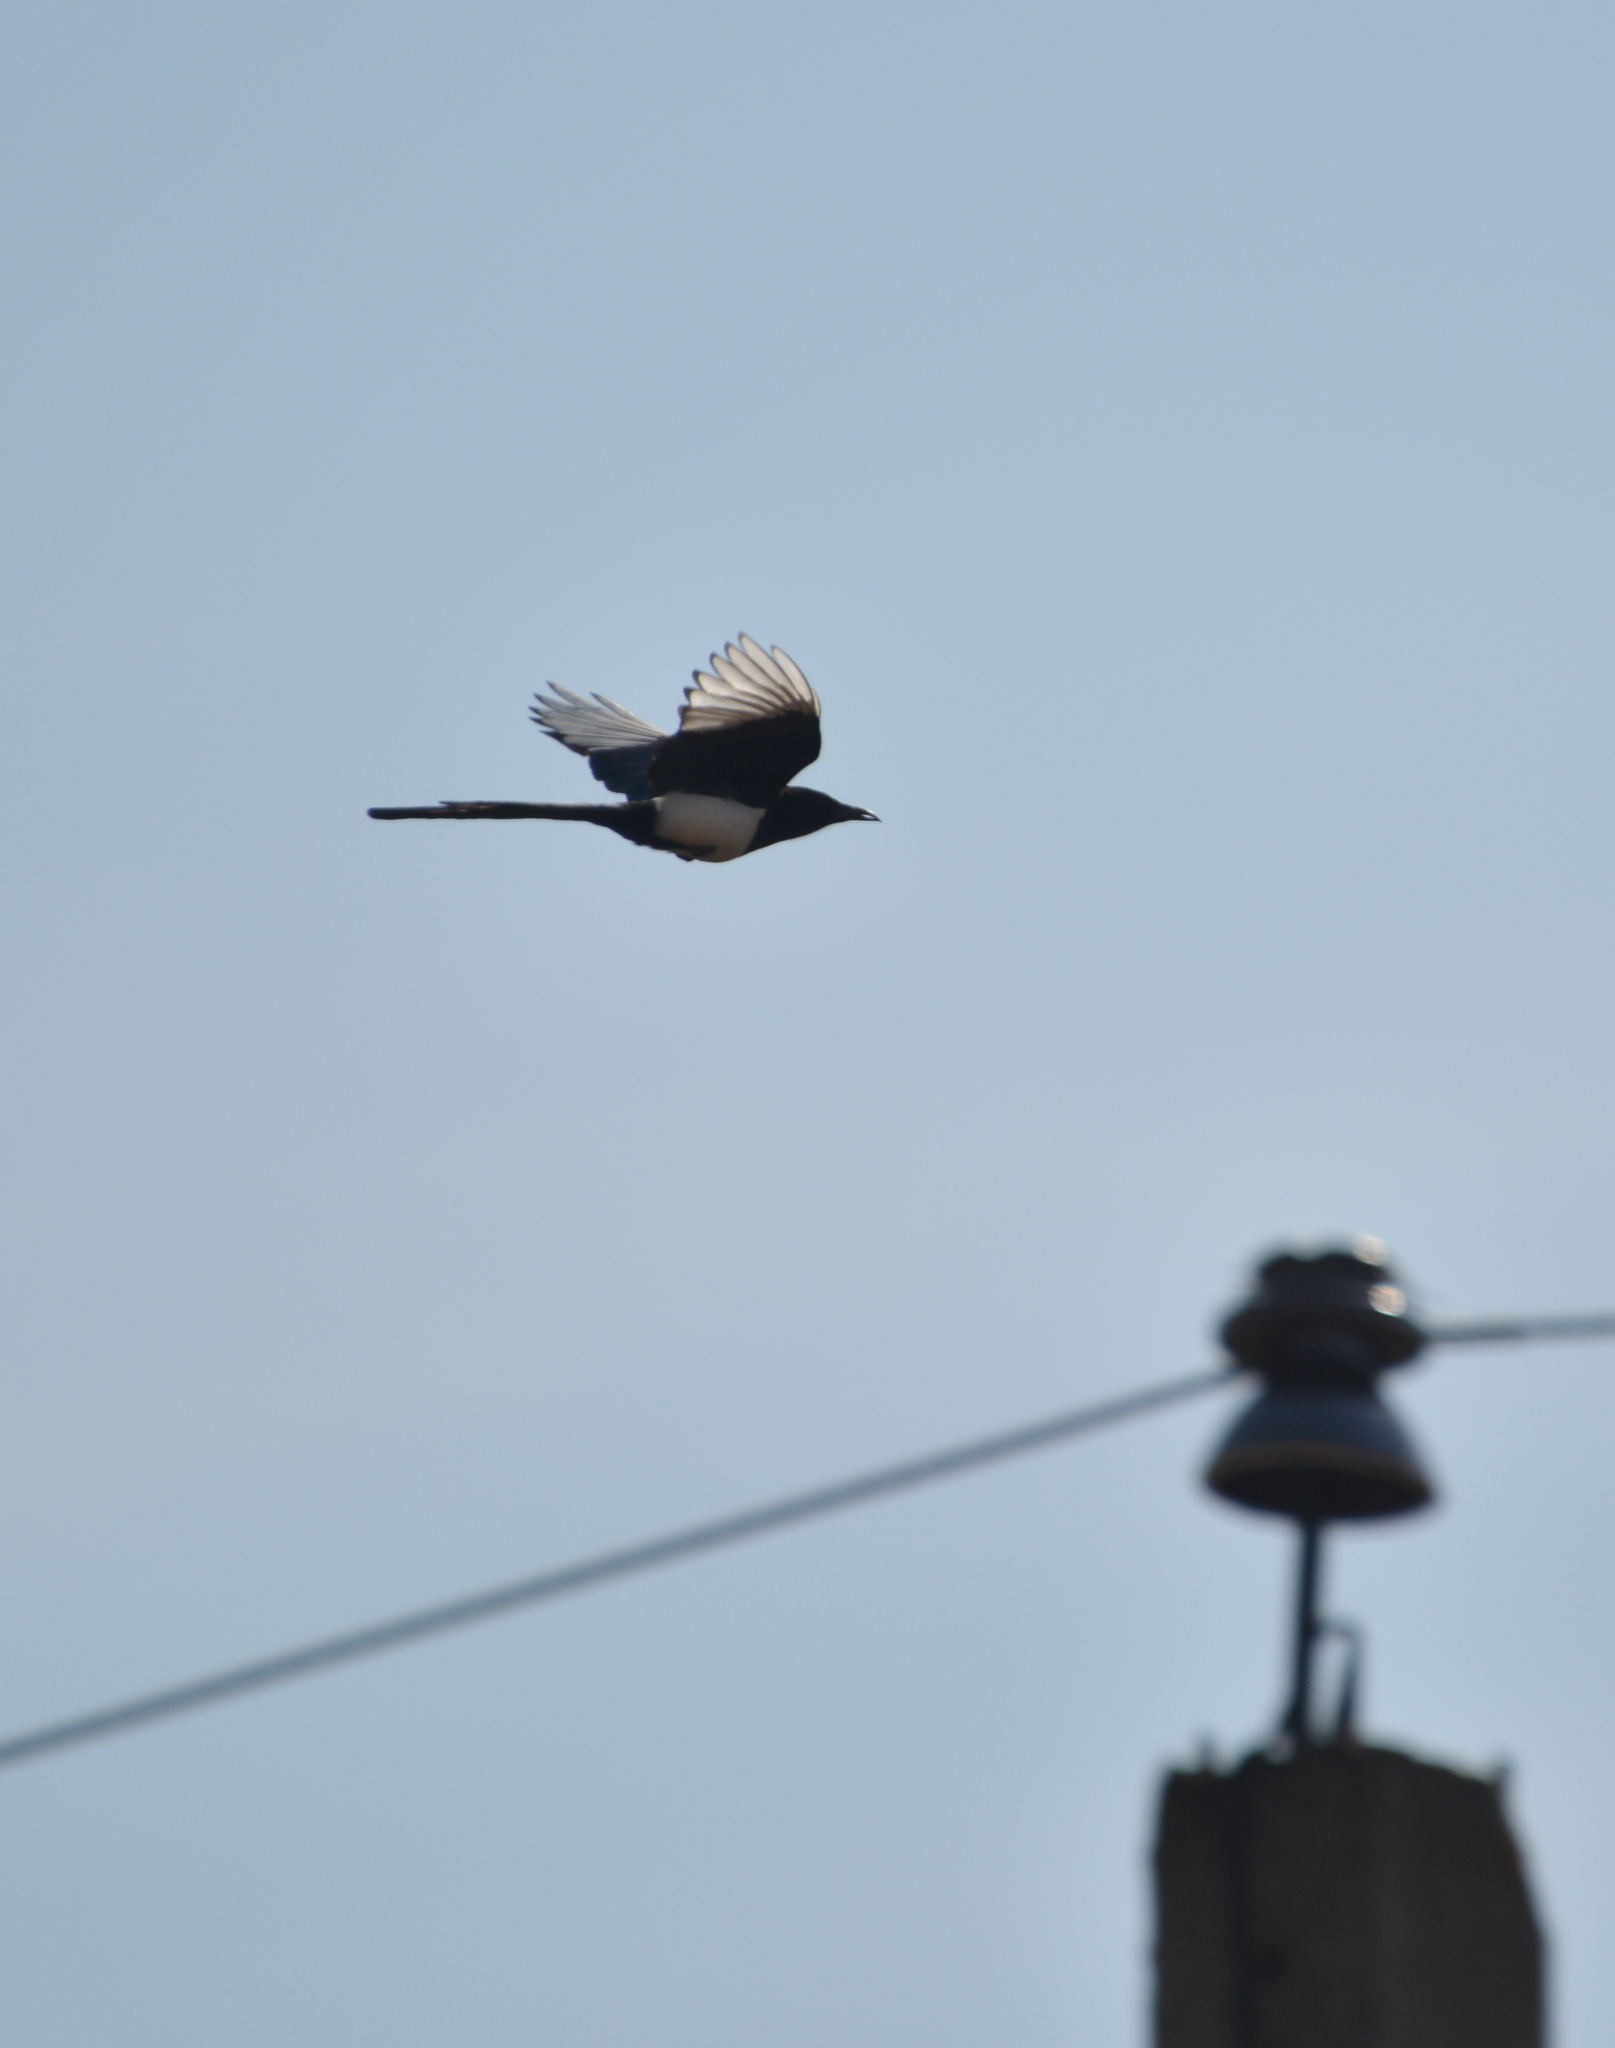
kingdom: Animalia
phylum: Chordata
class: Aves
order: Passeriformes
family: Corvidae
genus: Pica
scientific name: Pica pica
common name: Eurasian magpie
